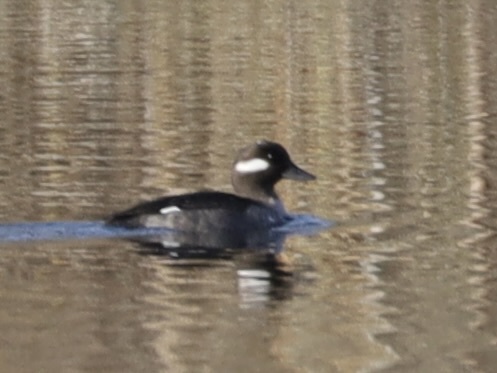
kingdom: Animalia
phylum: Chordata
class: Aves
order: Anseriformes
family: Anatidae
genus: Bucephala
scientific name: Bucephala albeola
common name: Bufflehead
